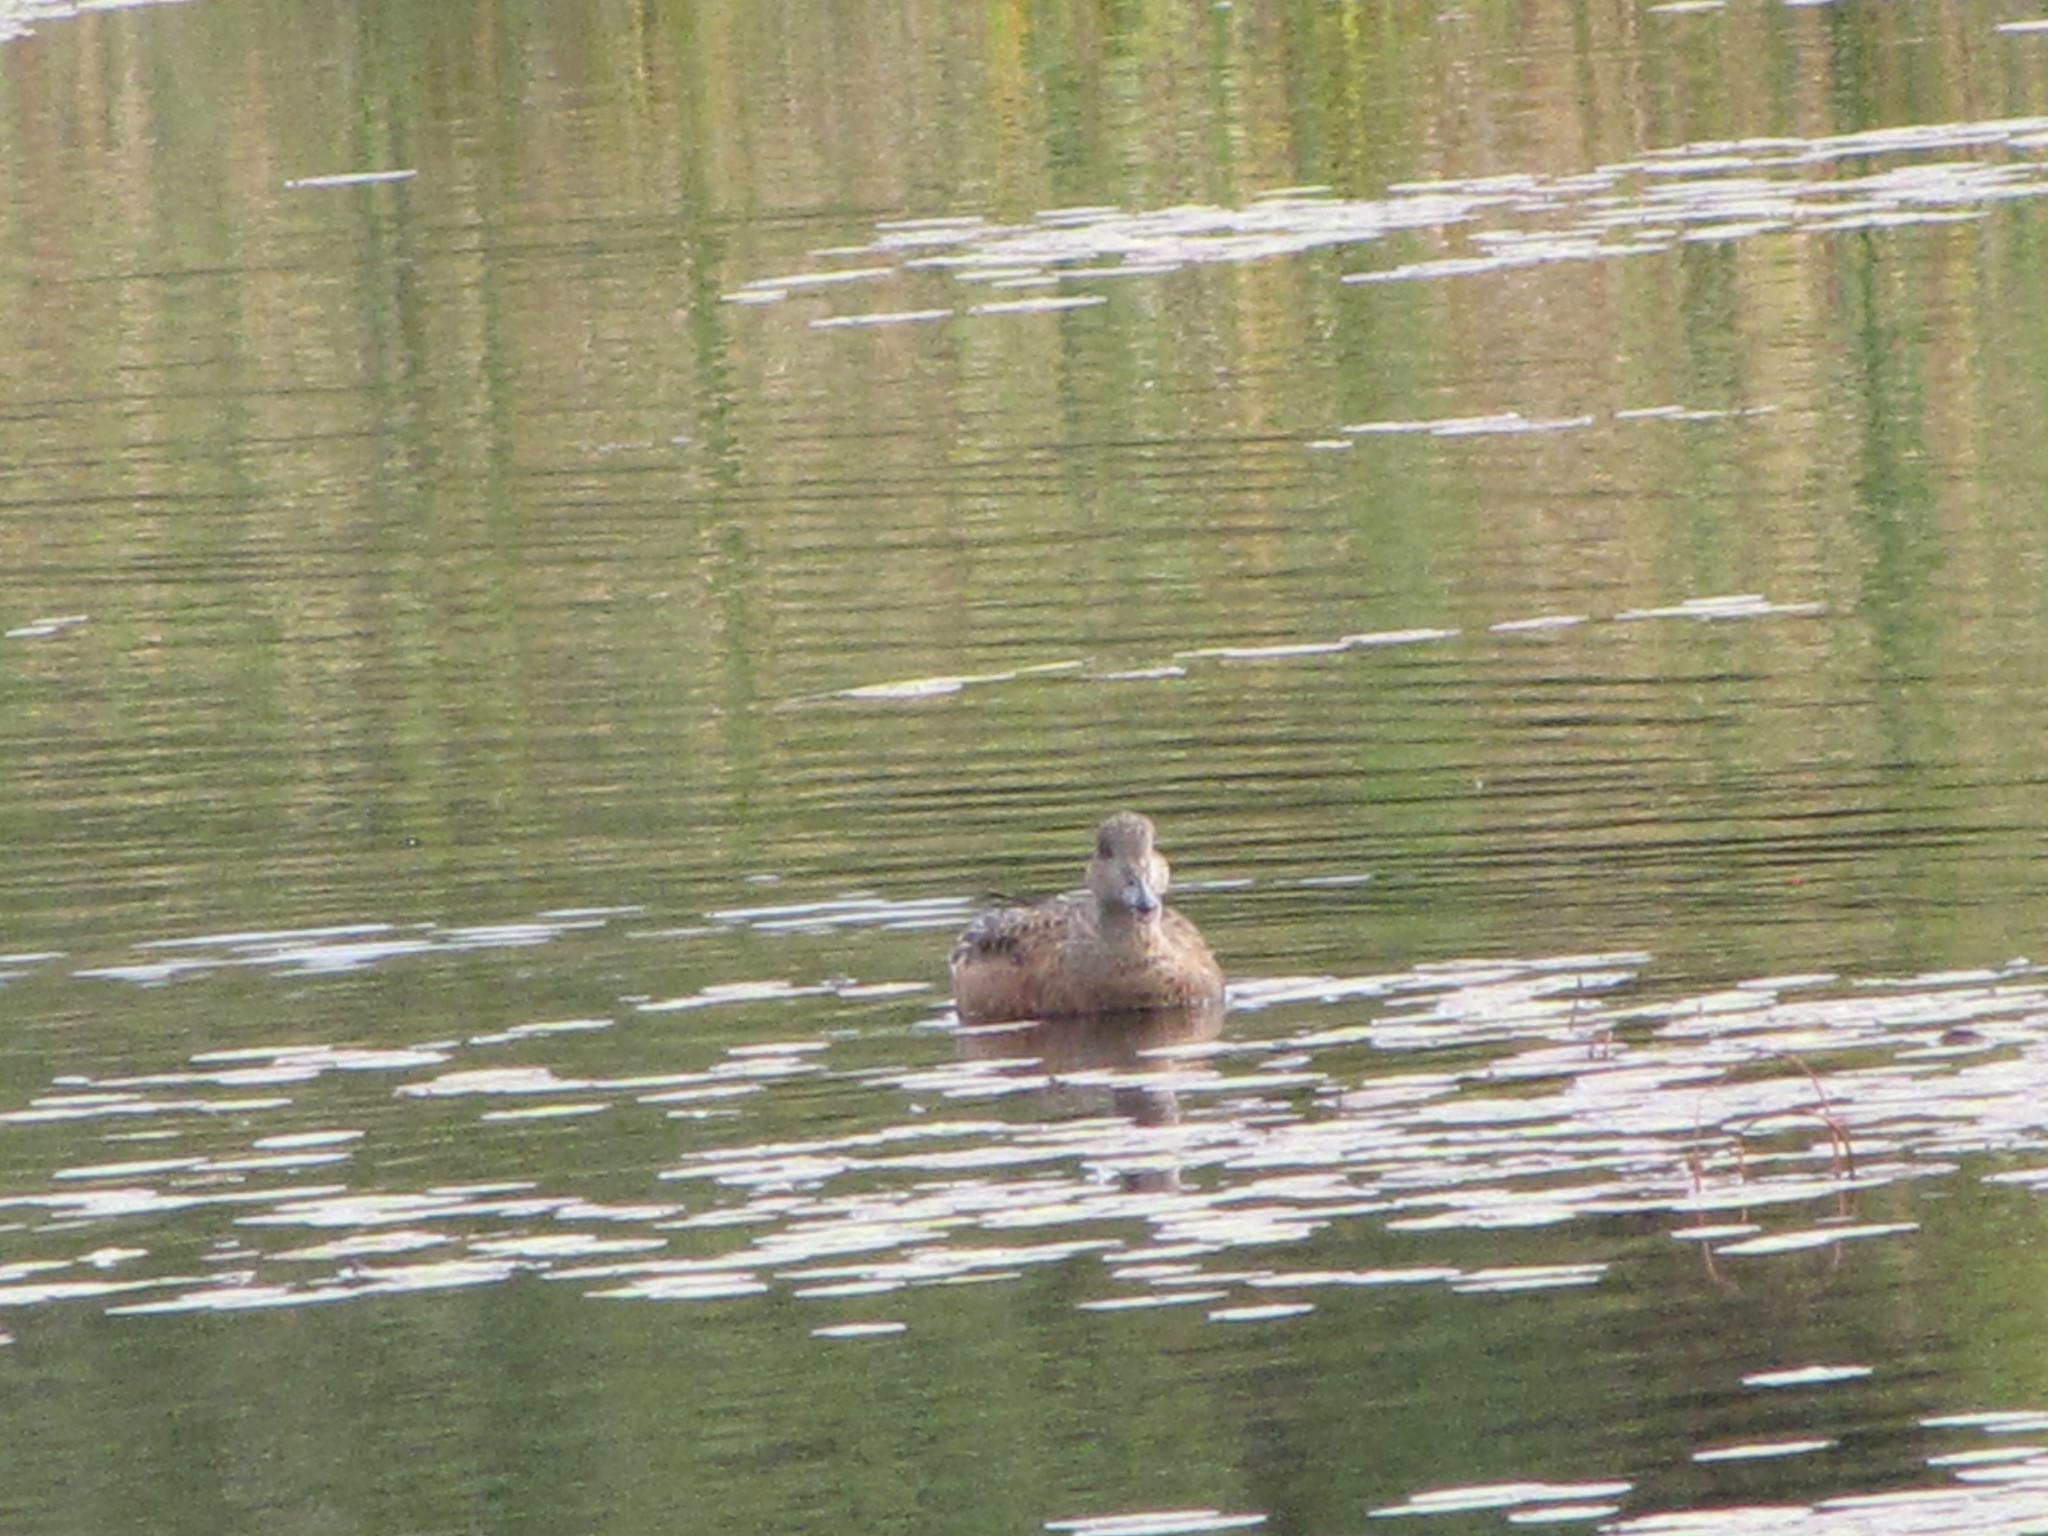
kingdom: Animalia
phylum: Chordata
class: Aves
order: Anseriformes
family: Anatidae
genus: Mareca
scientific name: Mareca americana
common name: American wigeon
